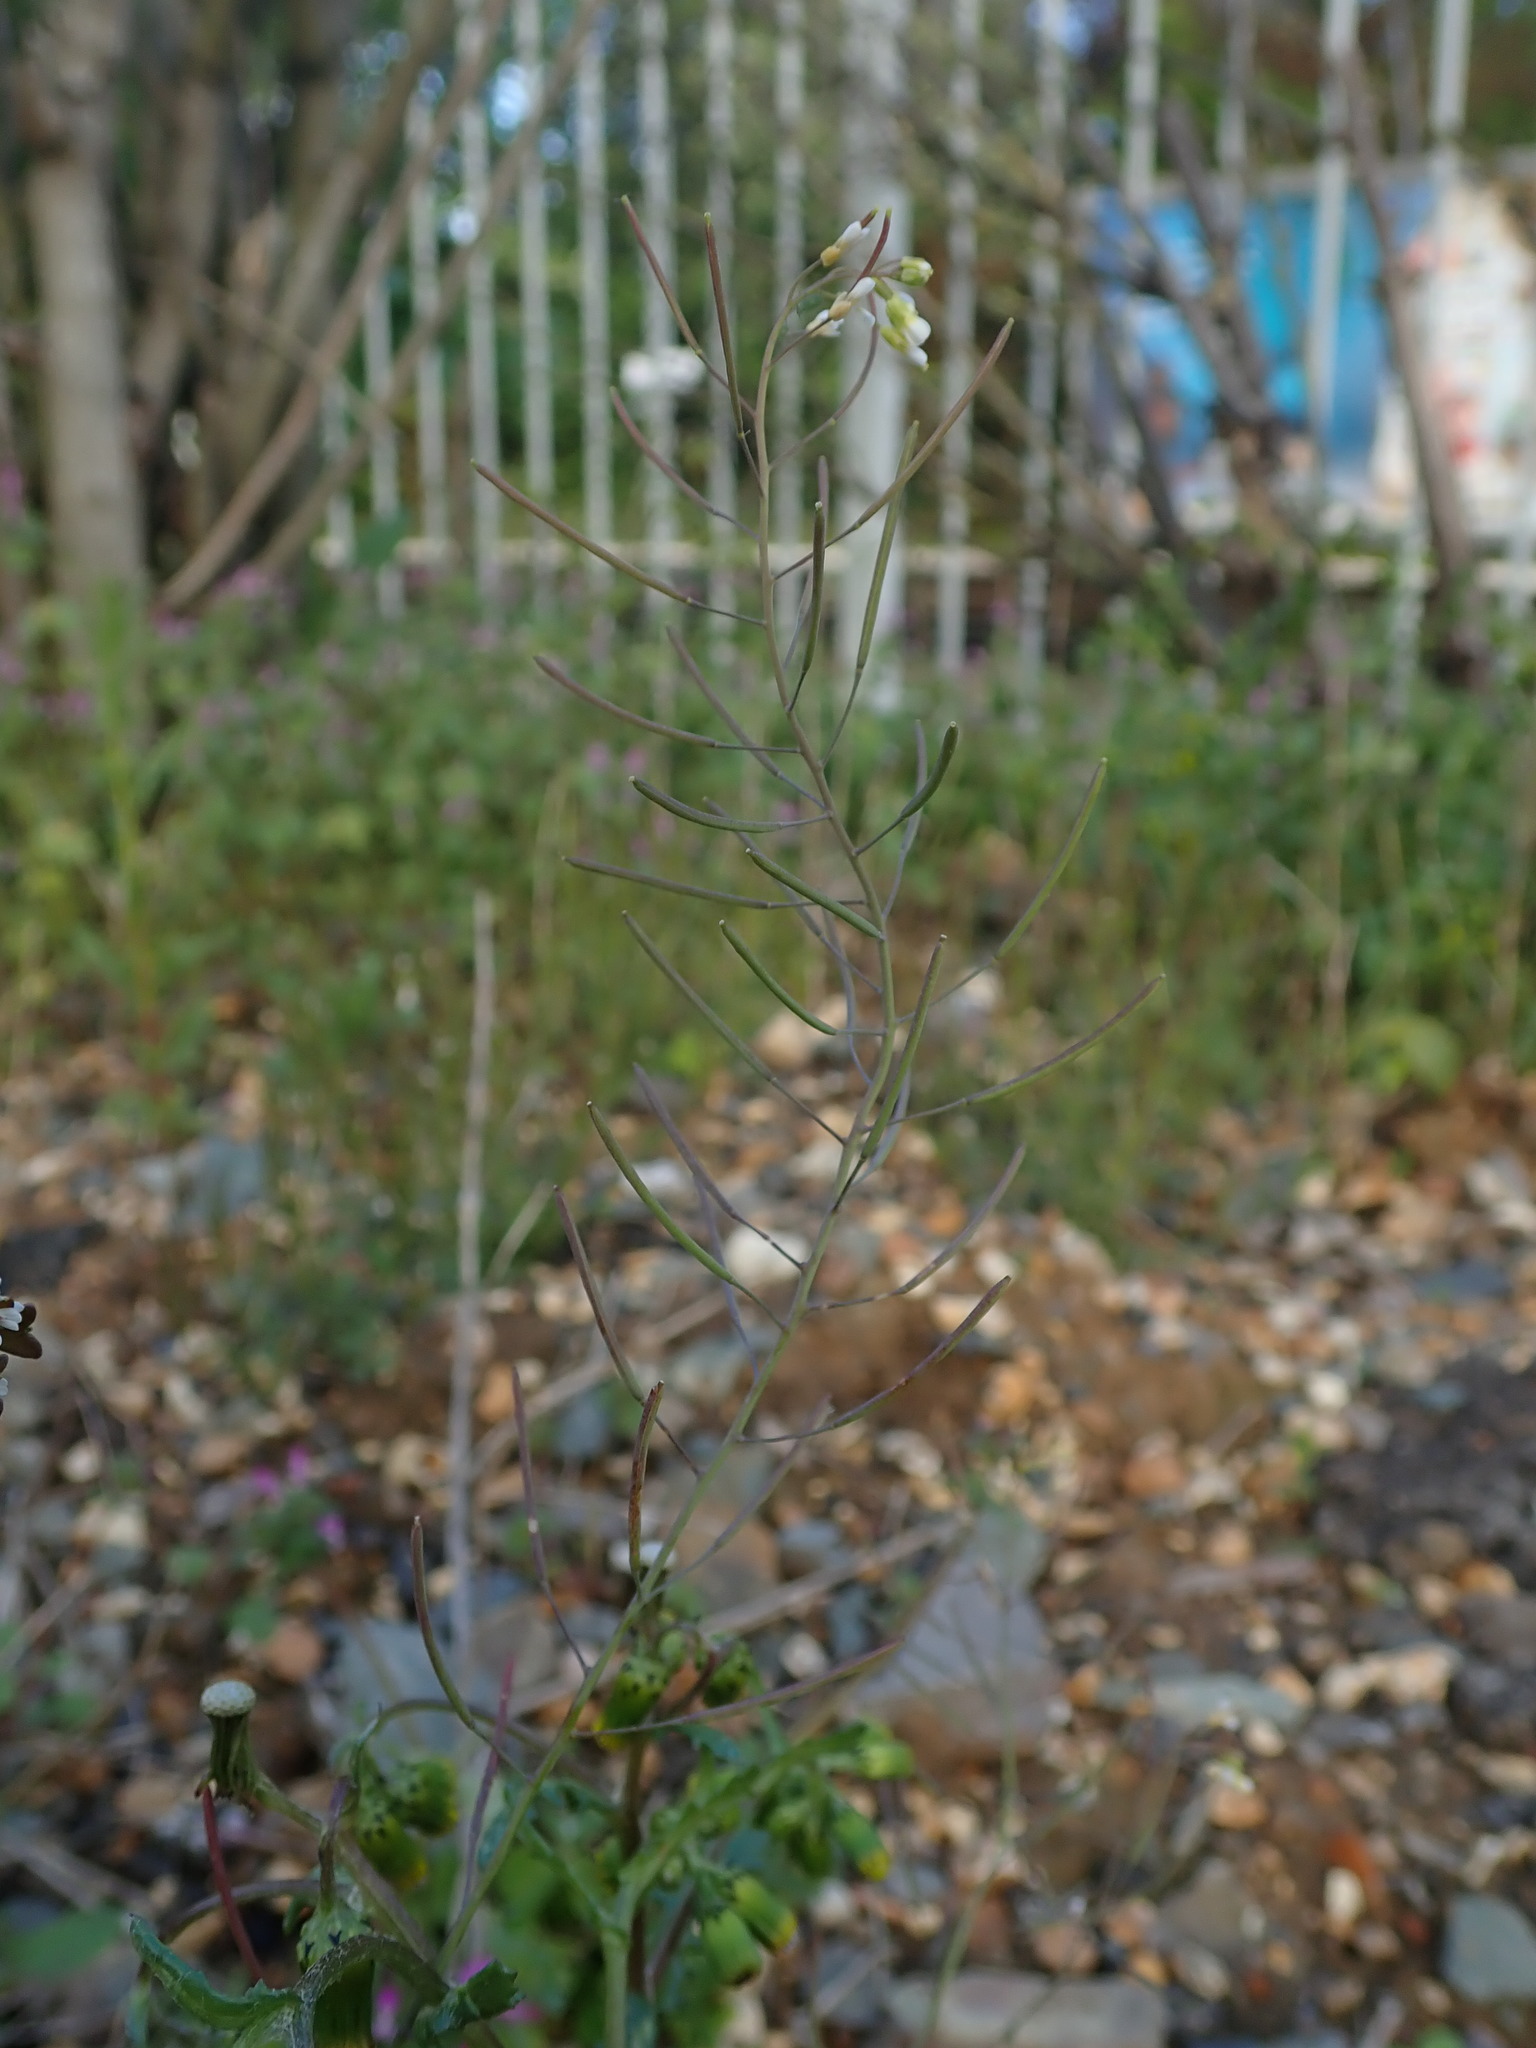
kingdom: Plantae
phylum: Tracheophyta
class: Magnoliopsida
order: Brassicales
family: Brassicaceae
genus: Arabidopsis
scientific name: Arabidopsis thaliana
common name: Thale cress
